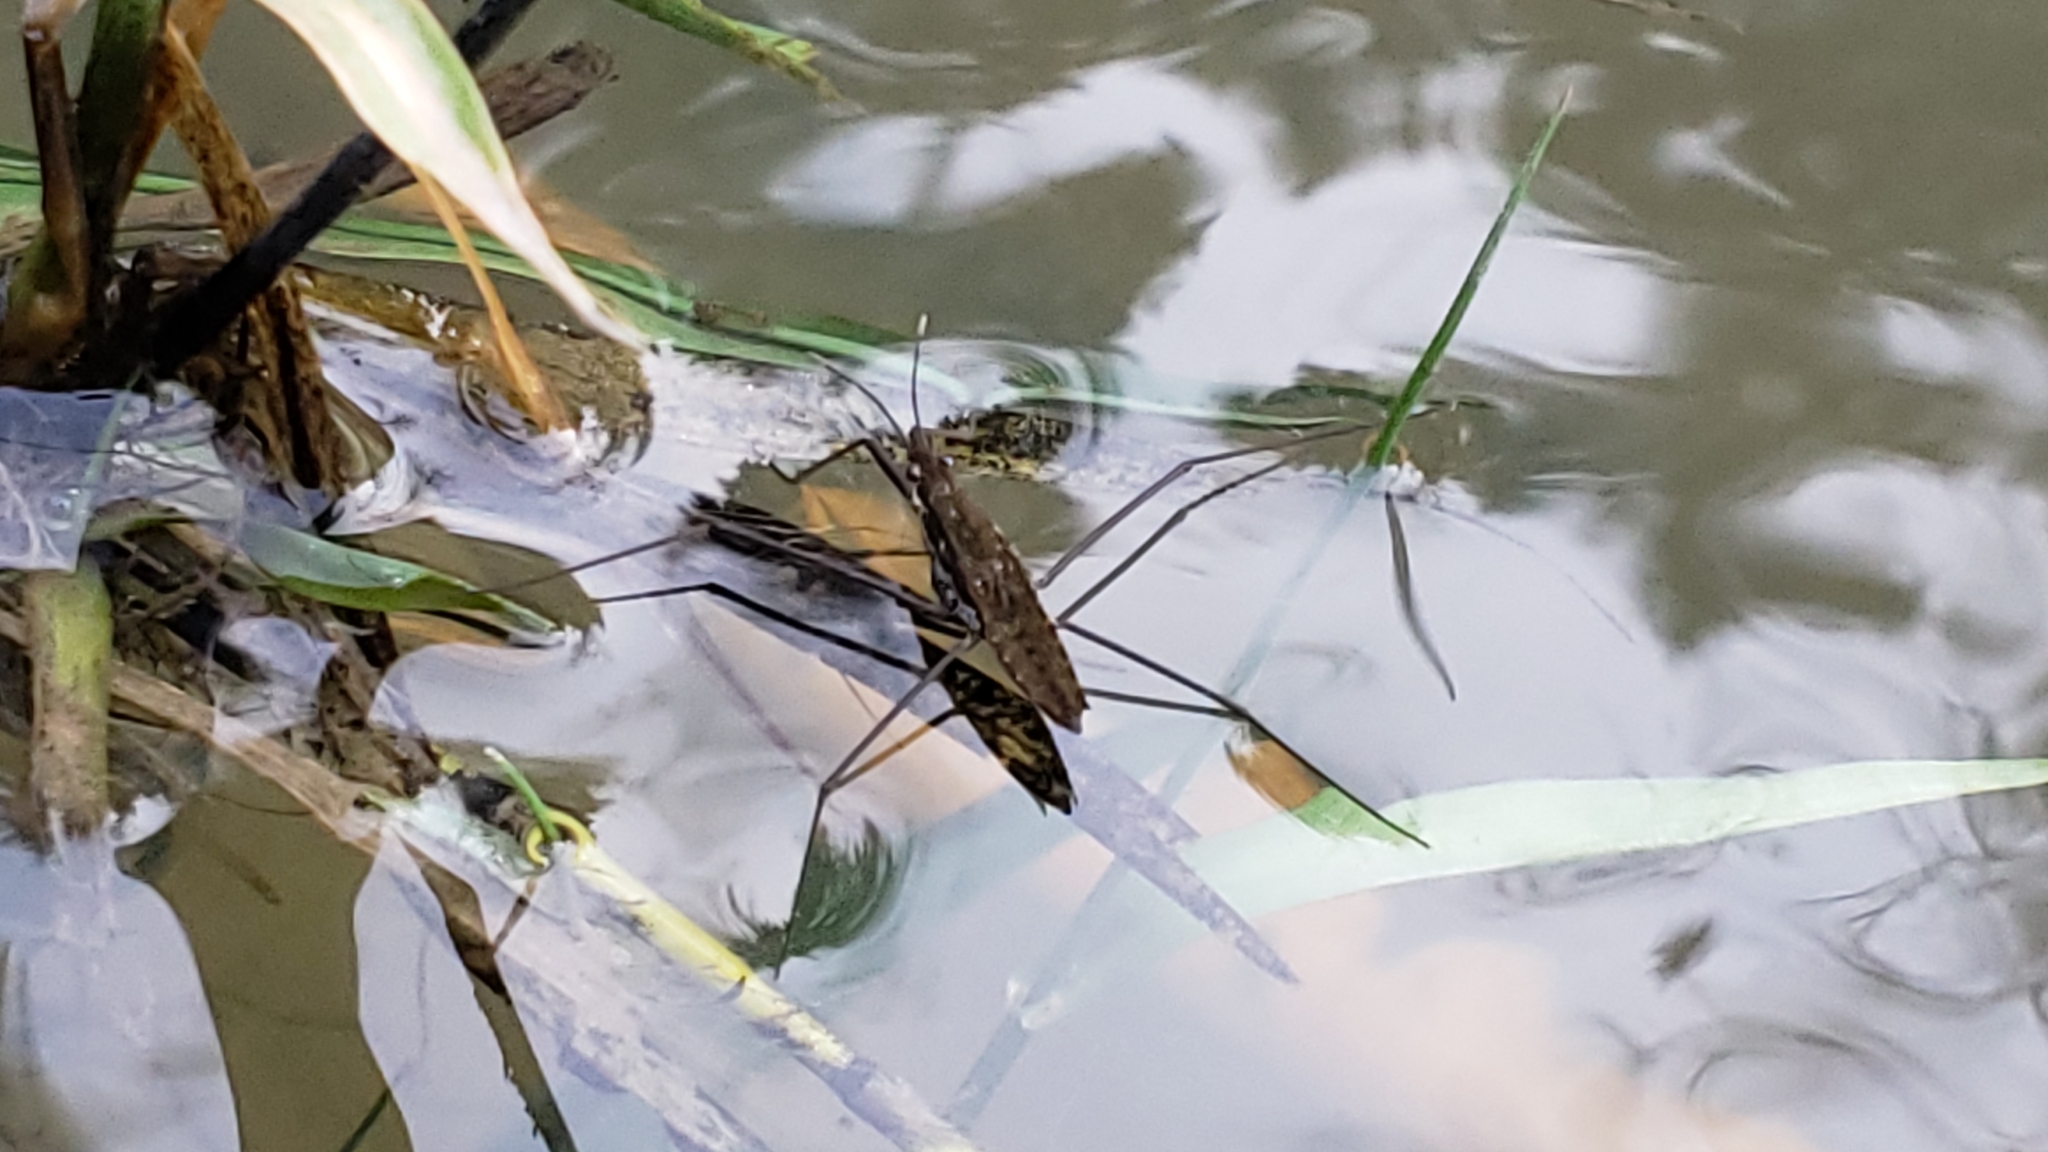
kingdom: Animalia
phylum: Arthropoda
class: Insecta
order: Hemiptera
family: Gerridae
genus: Aquarius
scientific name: Aquarius remigis
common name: Common water strider
